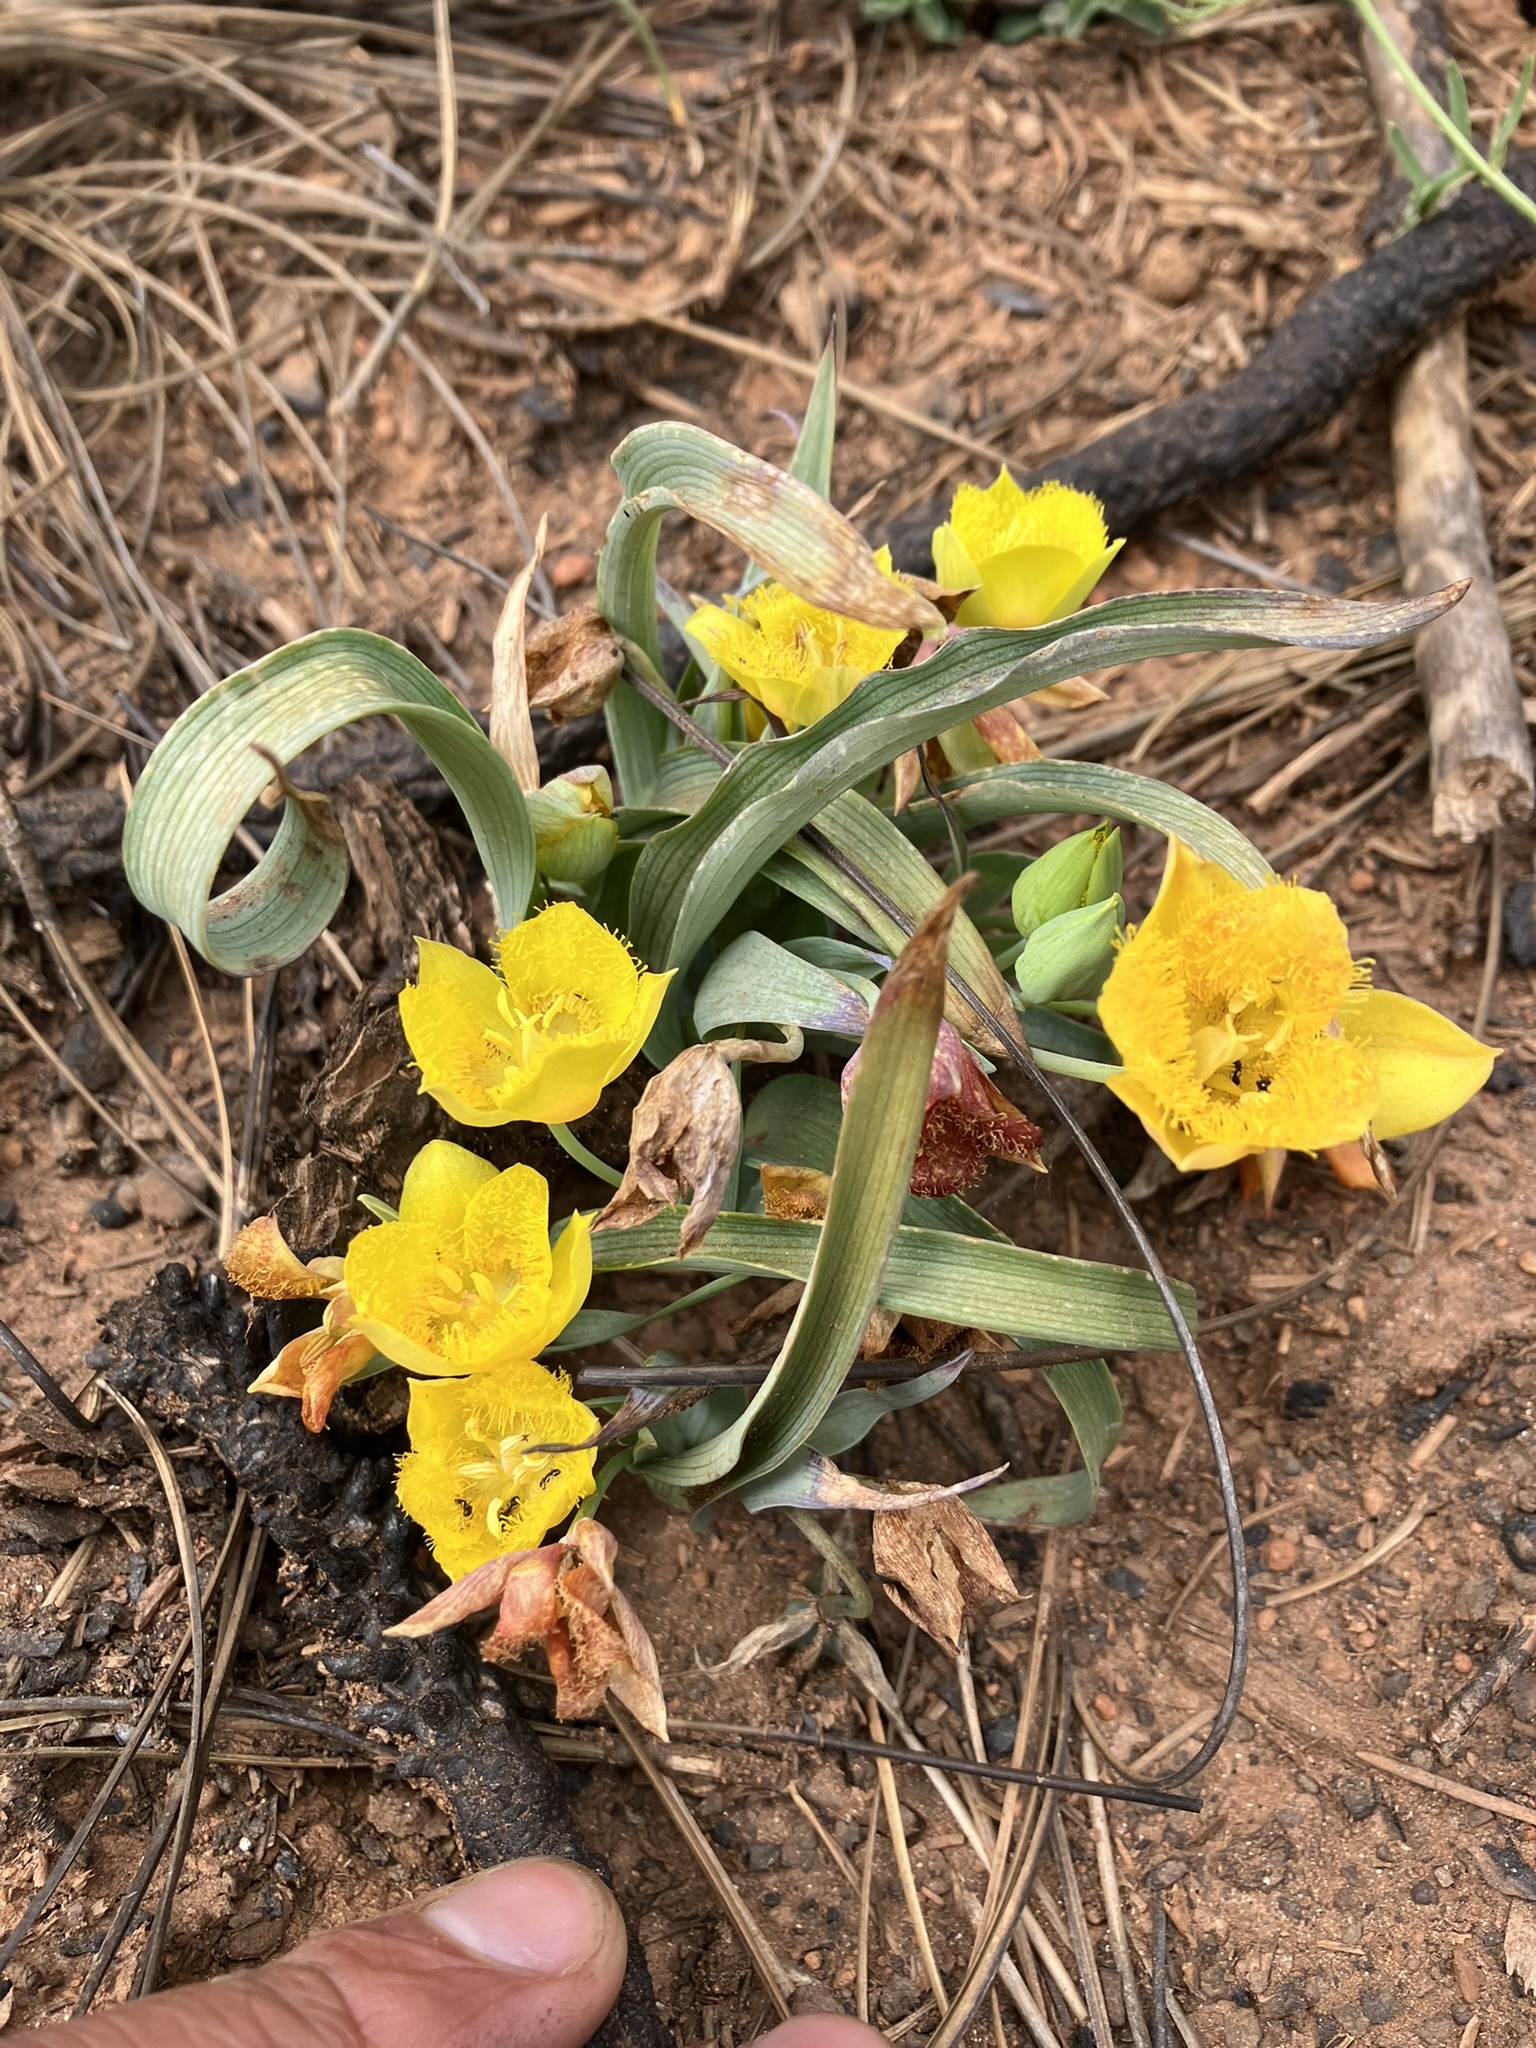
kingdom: Plantae
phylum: Tracheophyta
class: Liliopsida
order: Liliales
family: Liliaceae
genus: Calochortus
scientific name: Calochortus monophyllus
